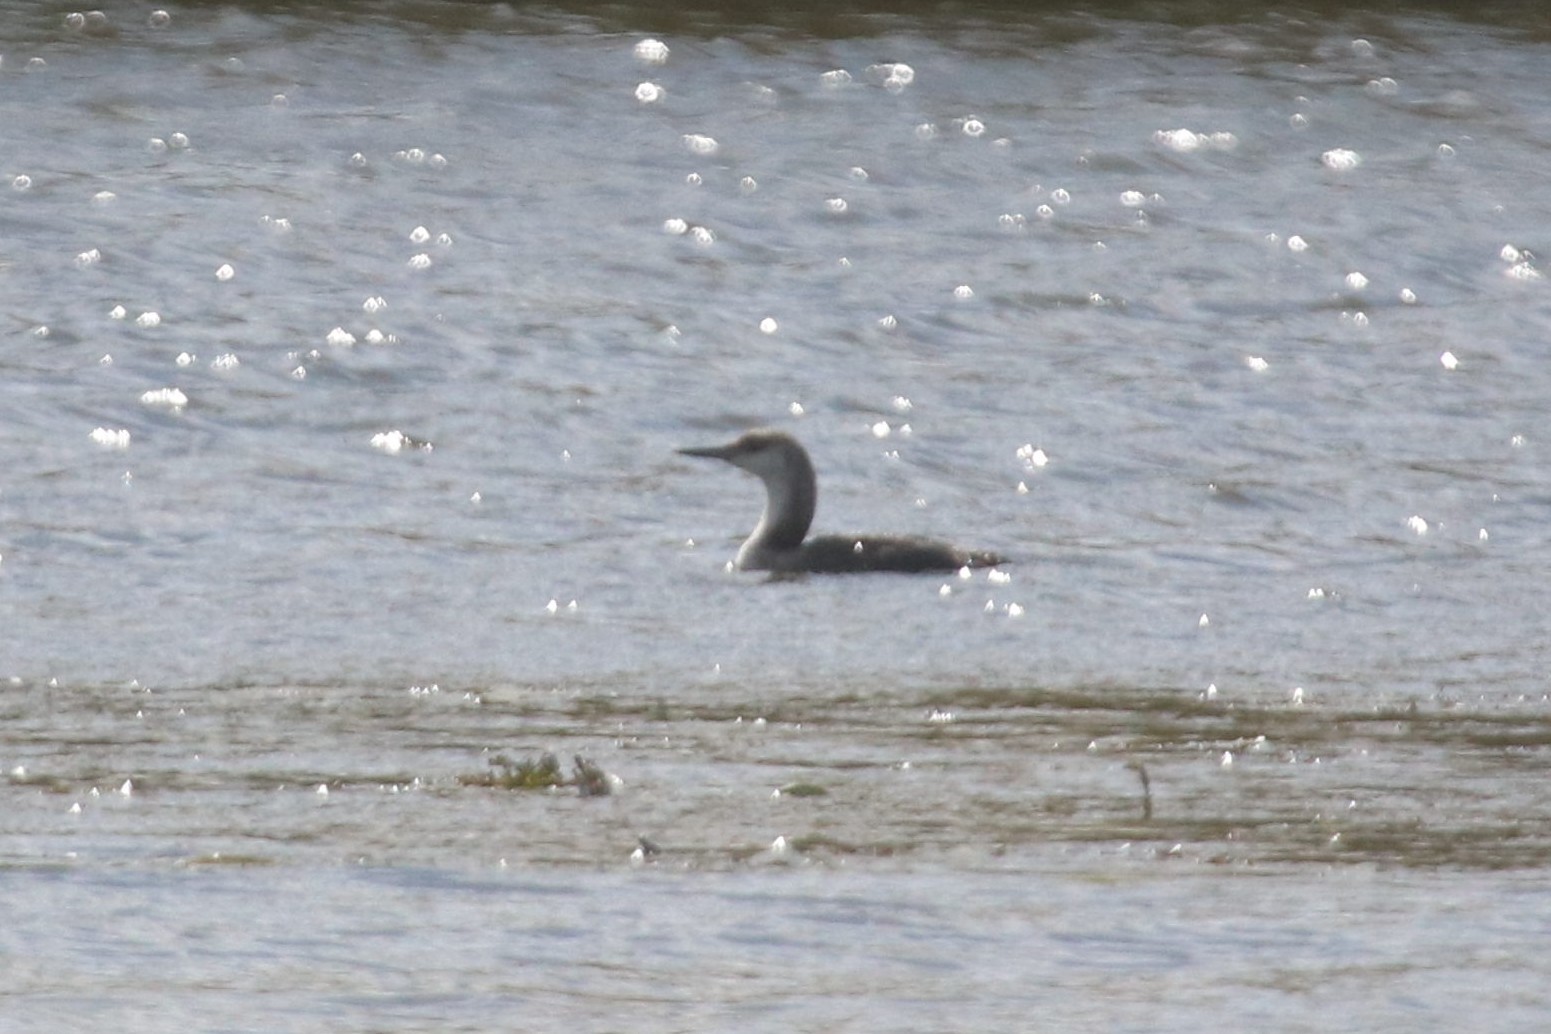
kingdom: Animalia
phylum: Chordata
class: Aves
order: Gaviiformes
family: Gaviidae
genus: Gavia
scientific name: Gavia arctica
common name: Black-throated loon
